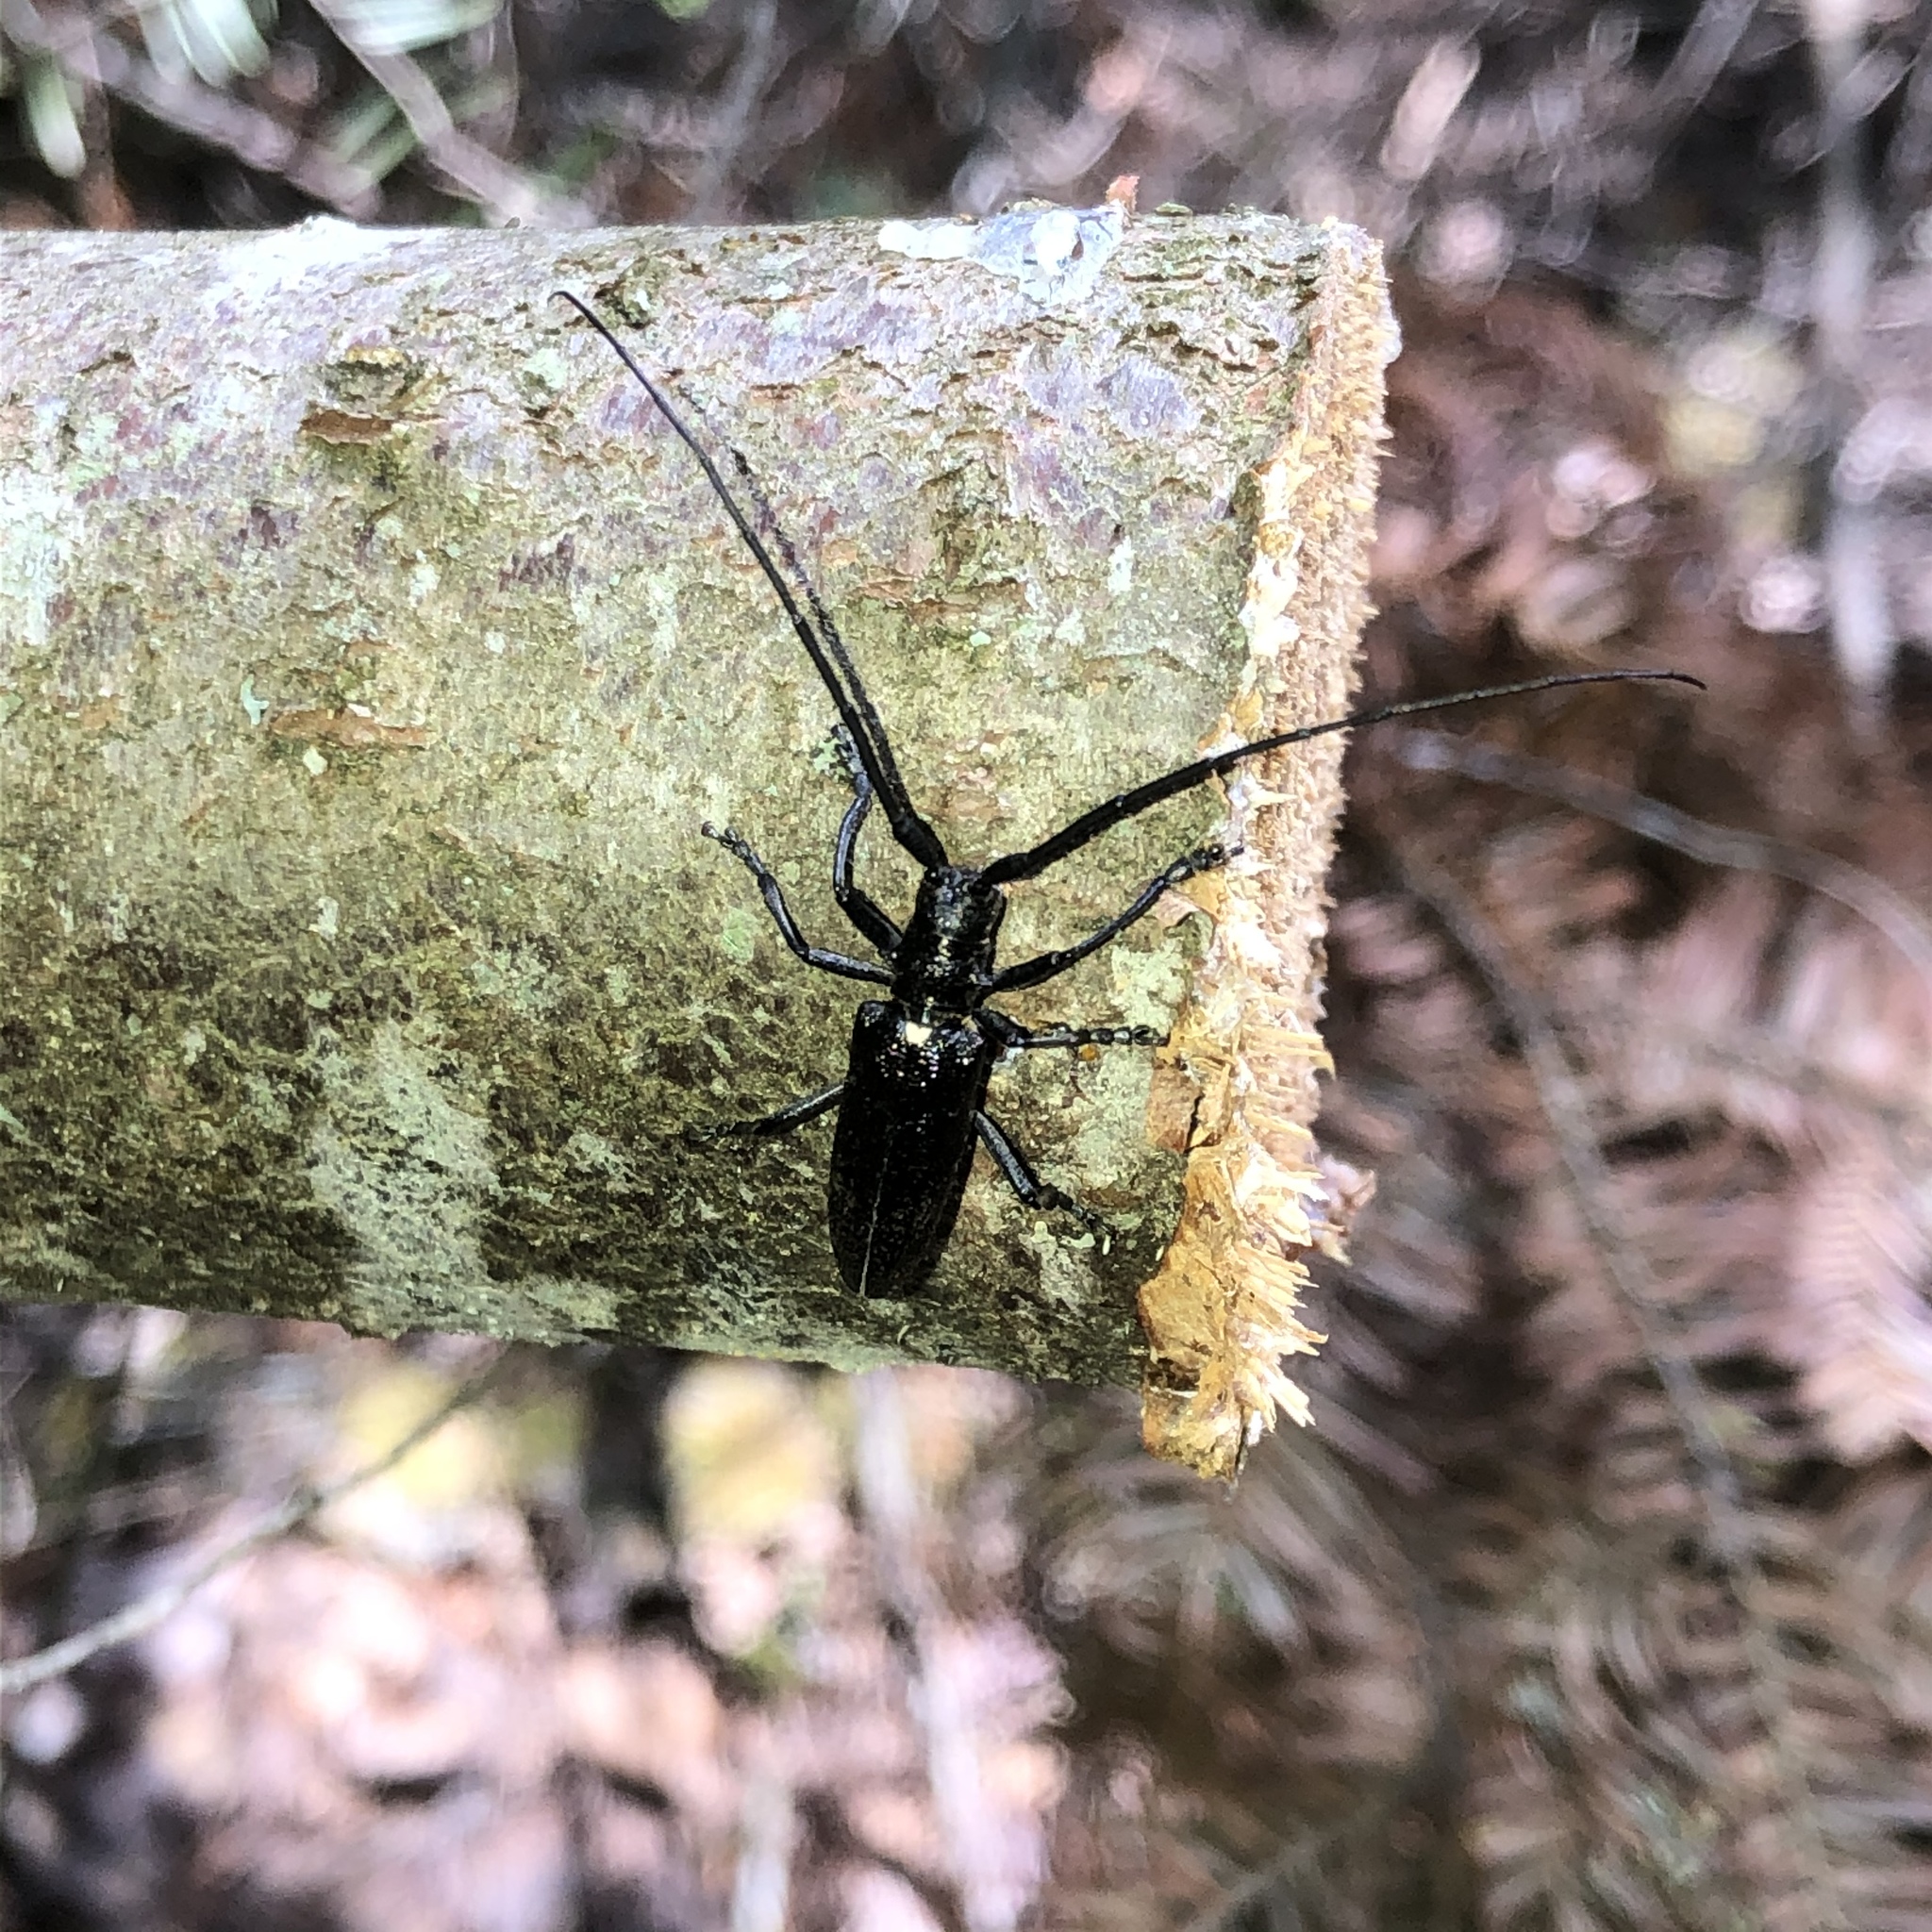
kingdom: Animalia
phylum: Arthropoda
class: Insecta
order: Coleoptera
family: Cerambycidae
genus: Monochamus
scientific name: Monochamus scutellatus
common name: White-spotted sawyer beetle
